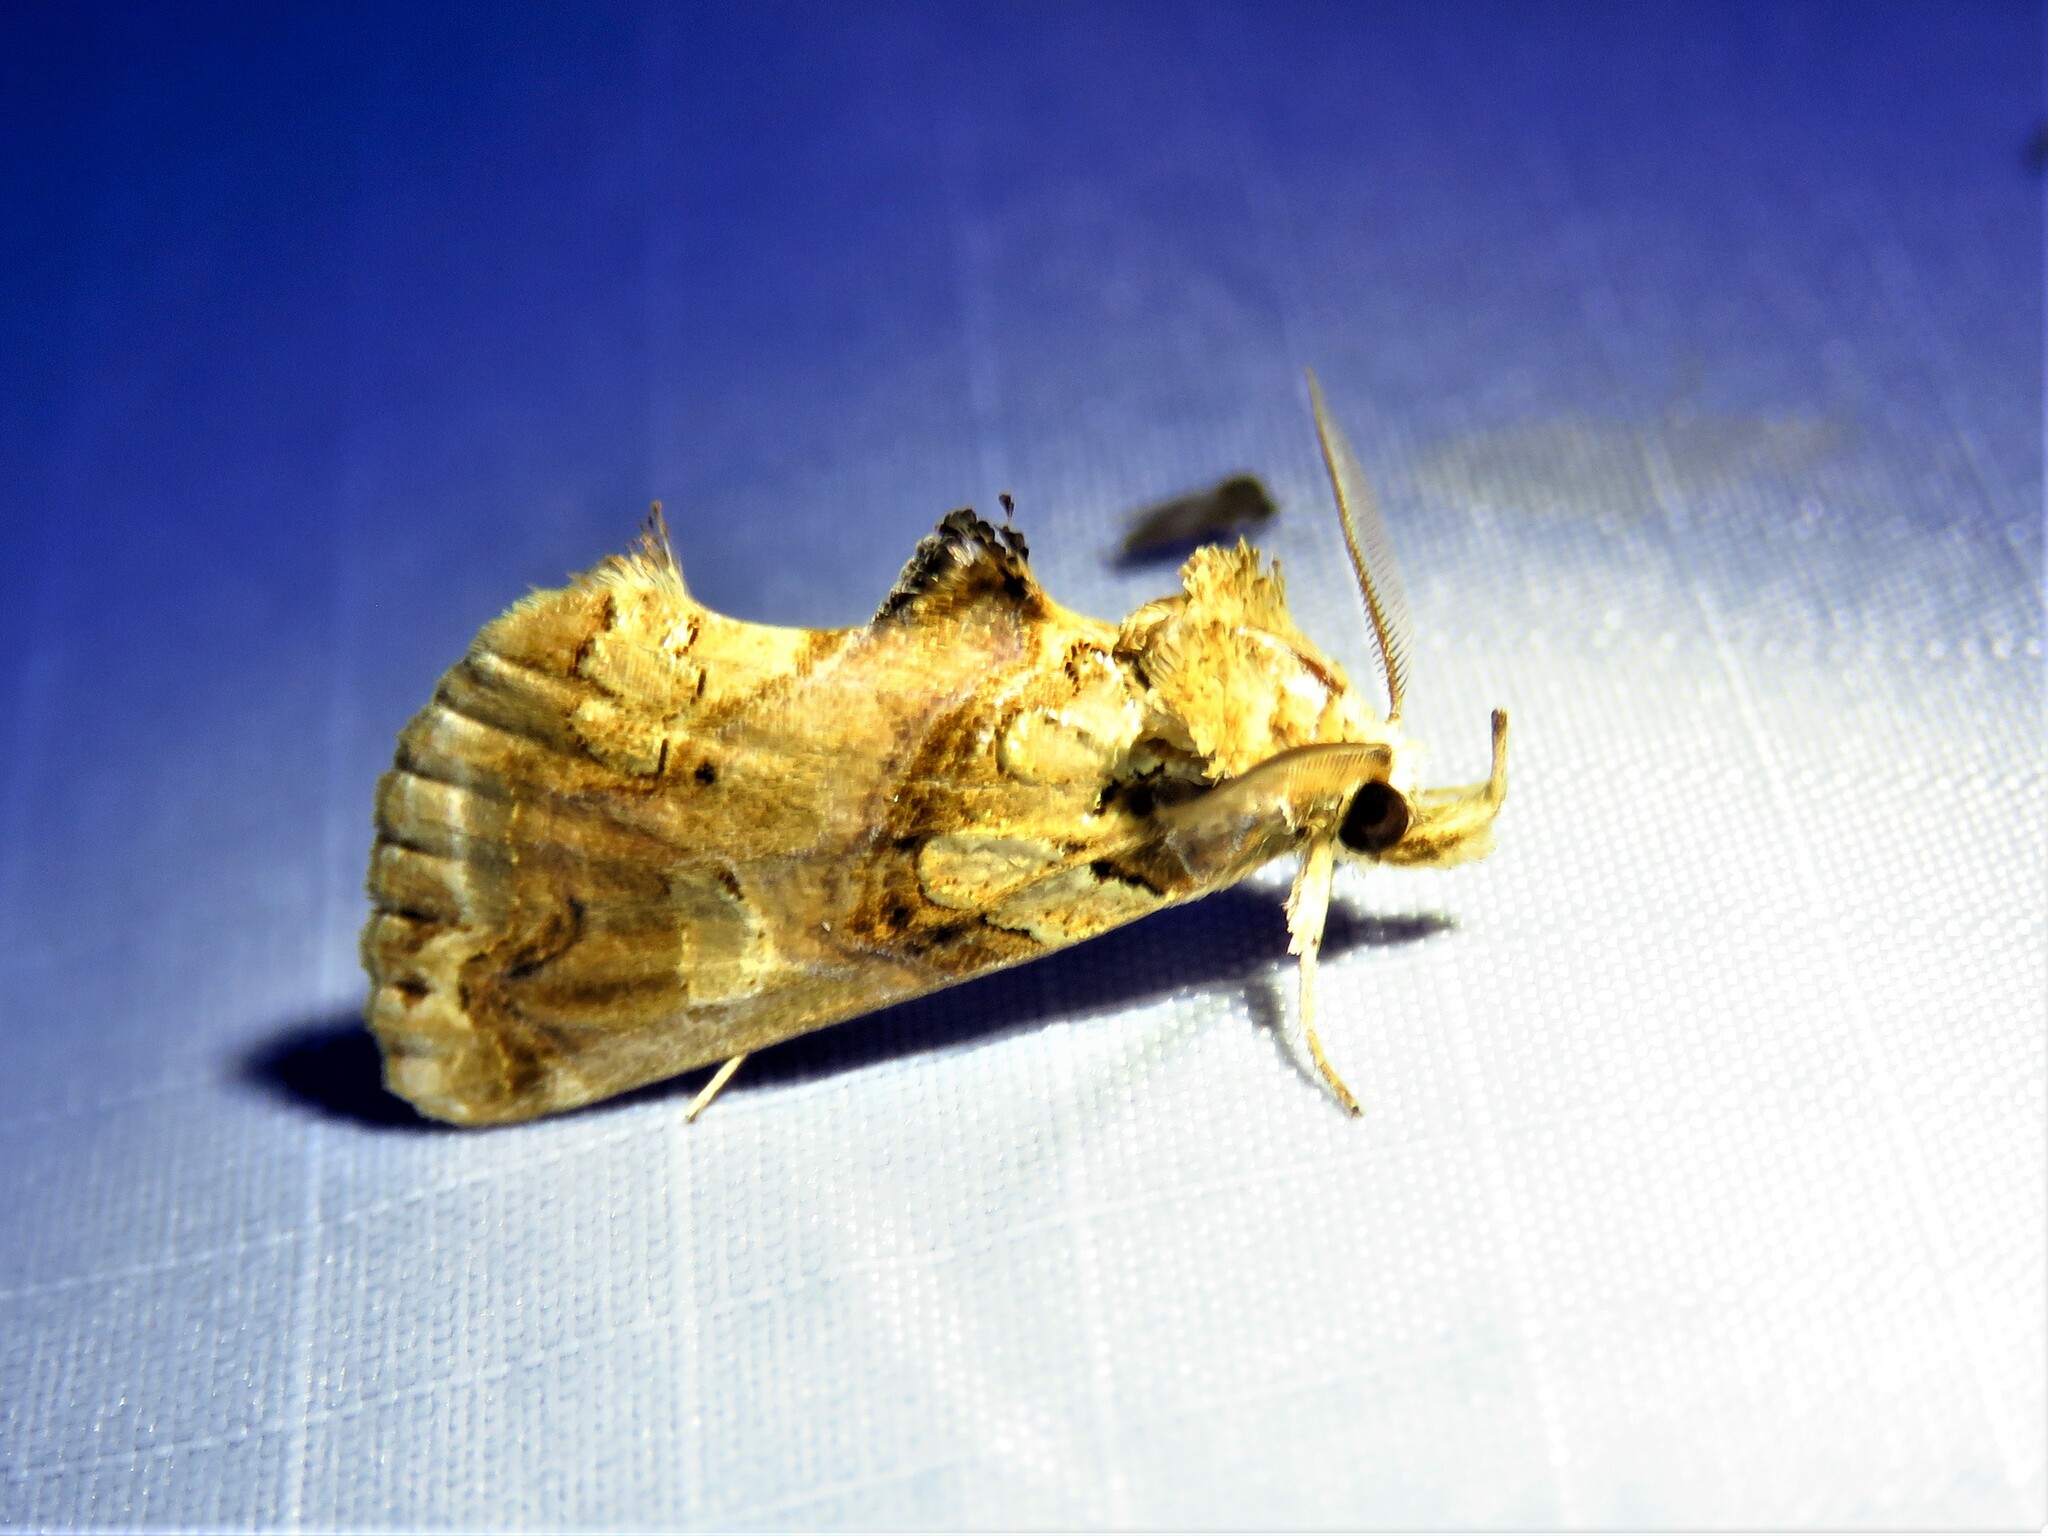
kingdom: Animalia
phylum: Arthropoda
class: Insecta
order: Lepidoptera
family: Erebidae
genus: Plusiodonta
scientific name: Plusiodonta compressipalpis
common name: Moonseed moth
